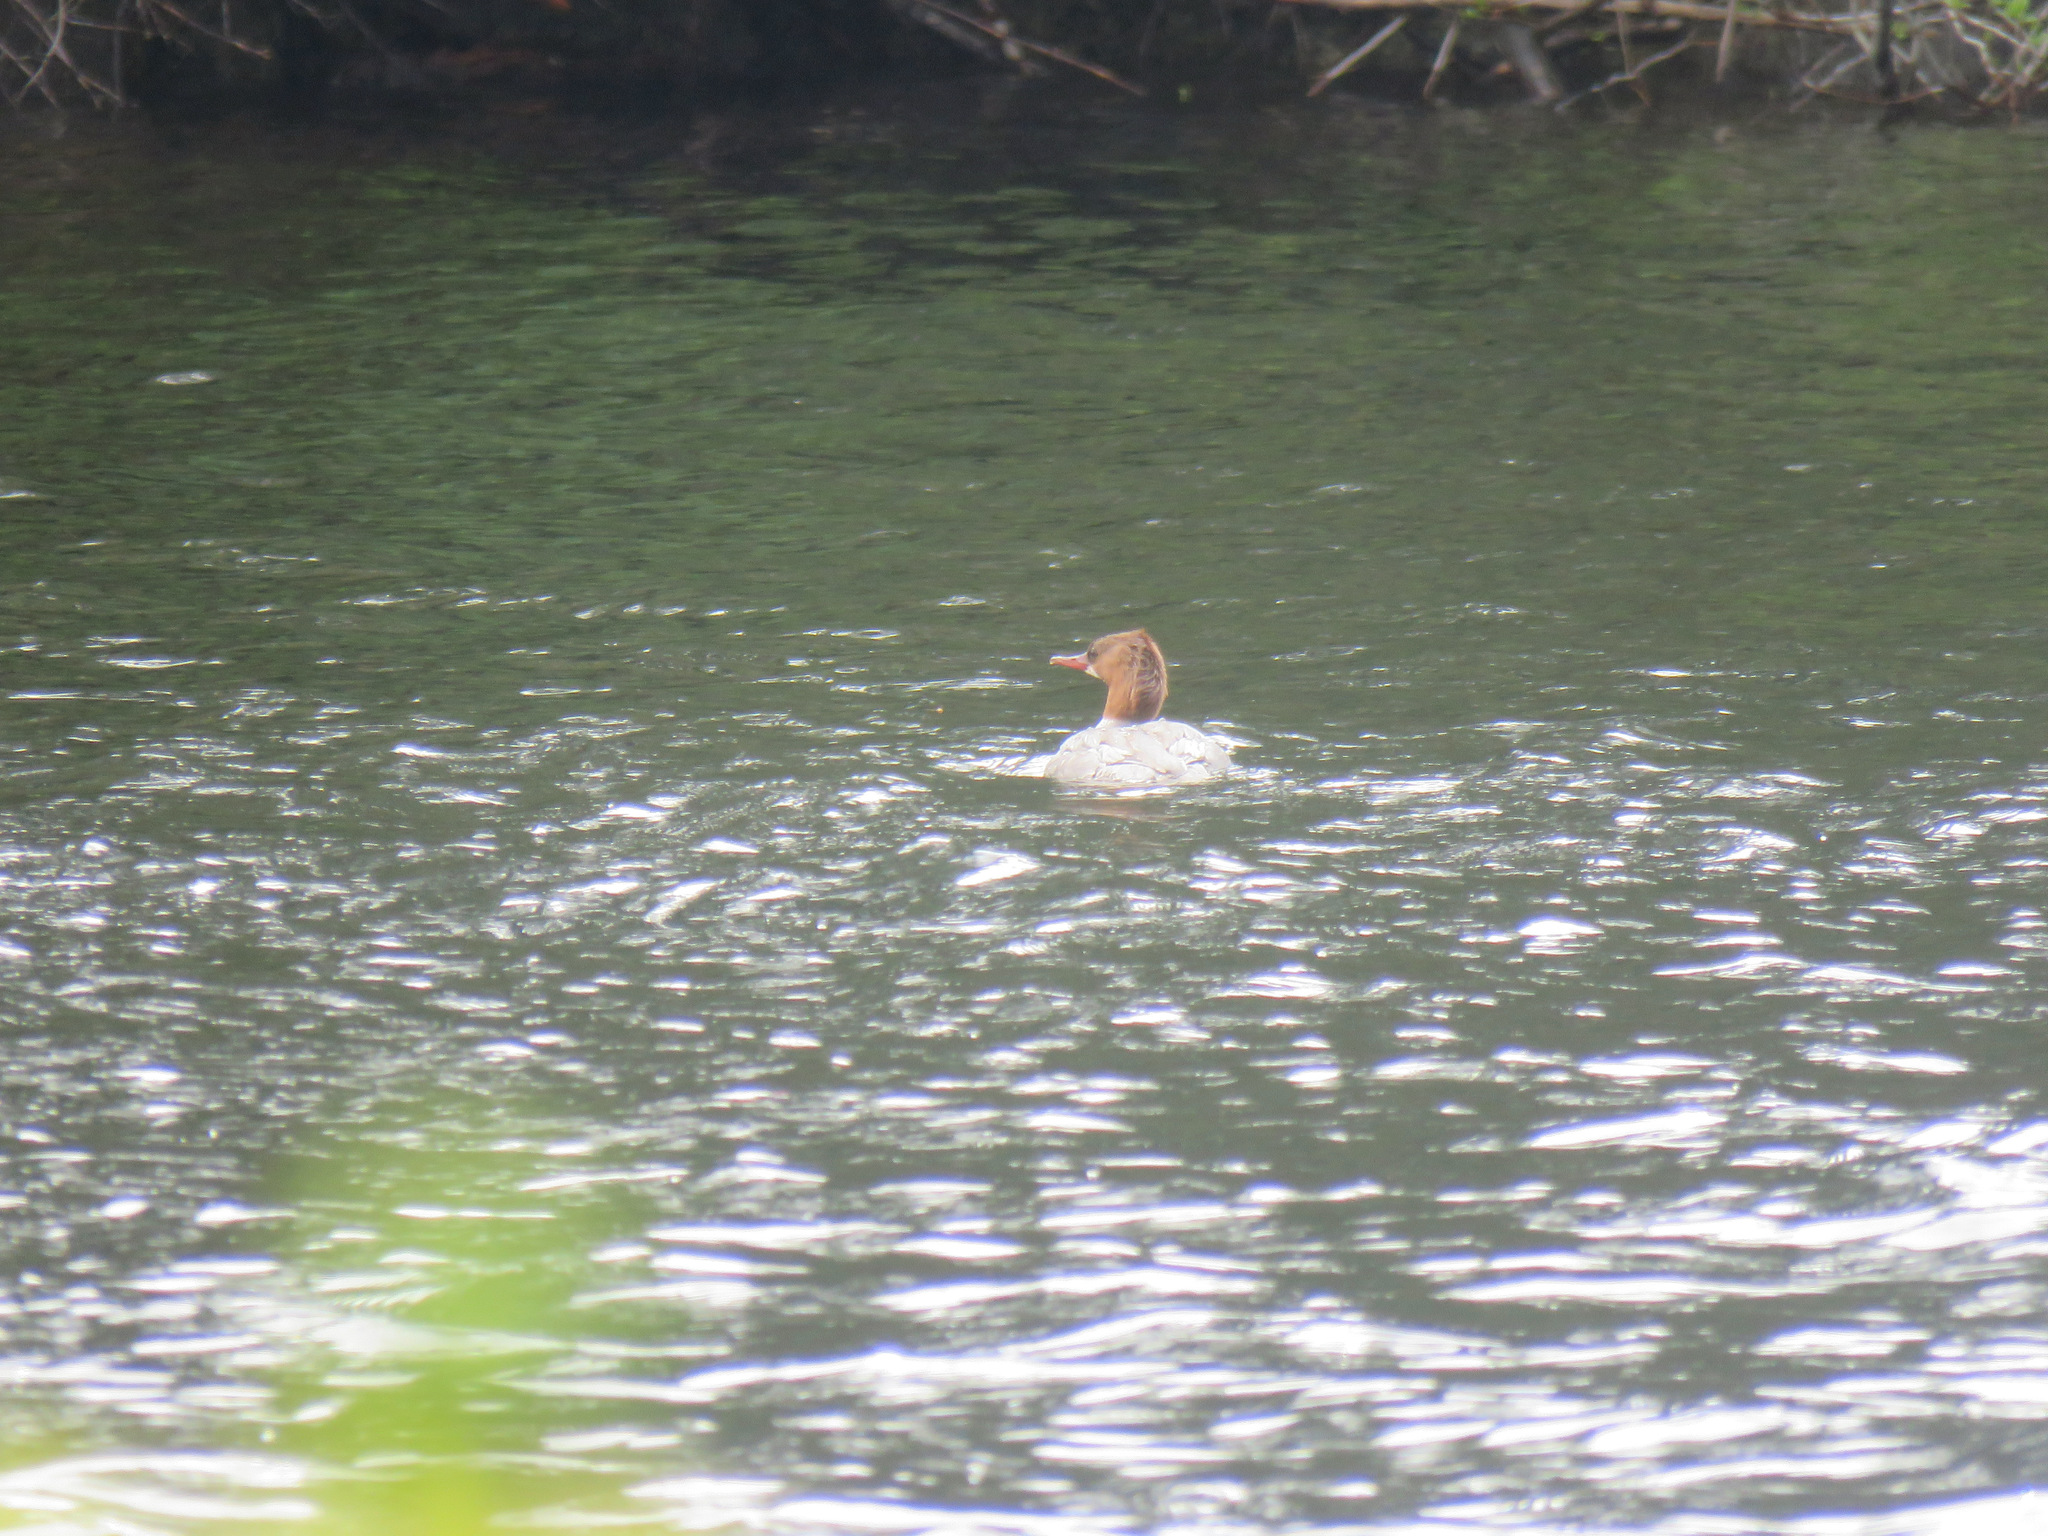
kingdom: Animalia
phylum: Chordata
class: Aves
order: Anseriformes
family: Anatidae
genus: Mergus
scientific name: Mergus merganser
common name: Common merganser
